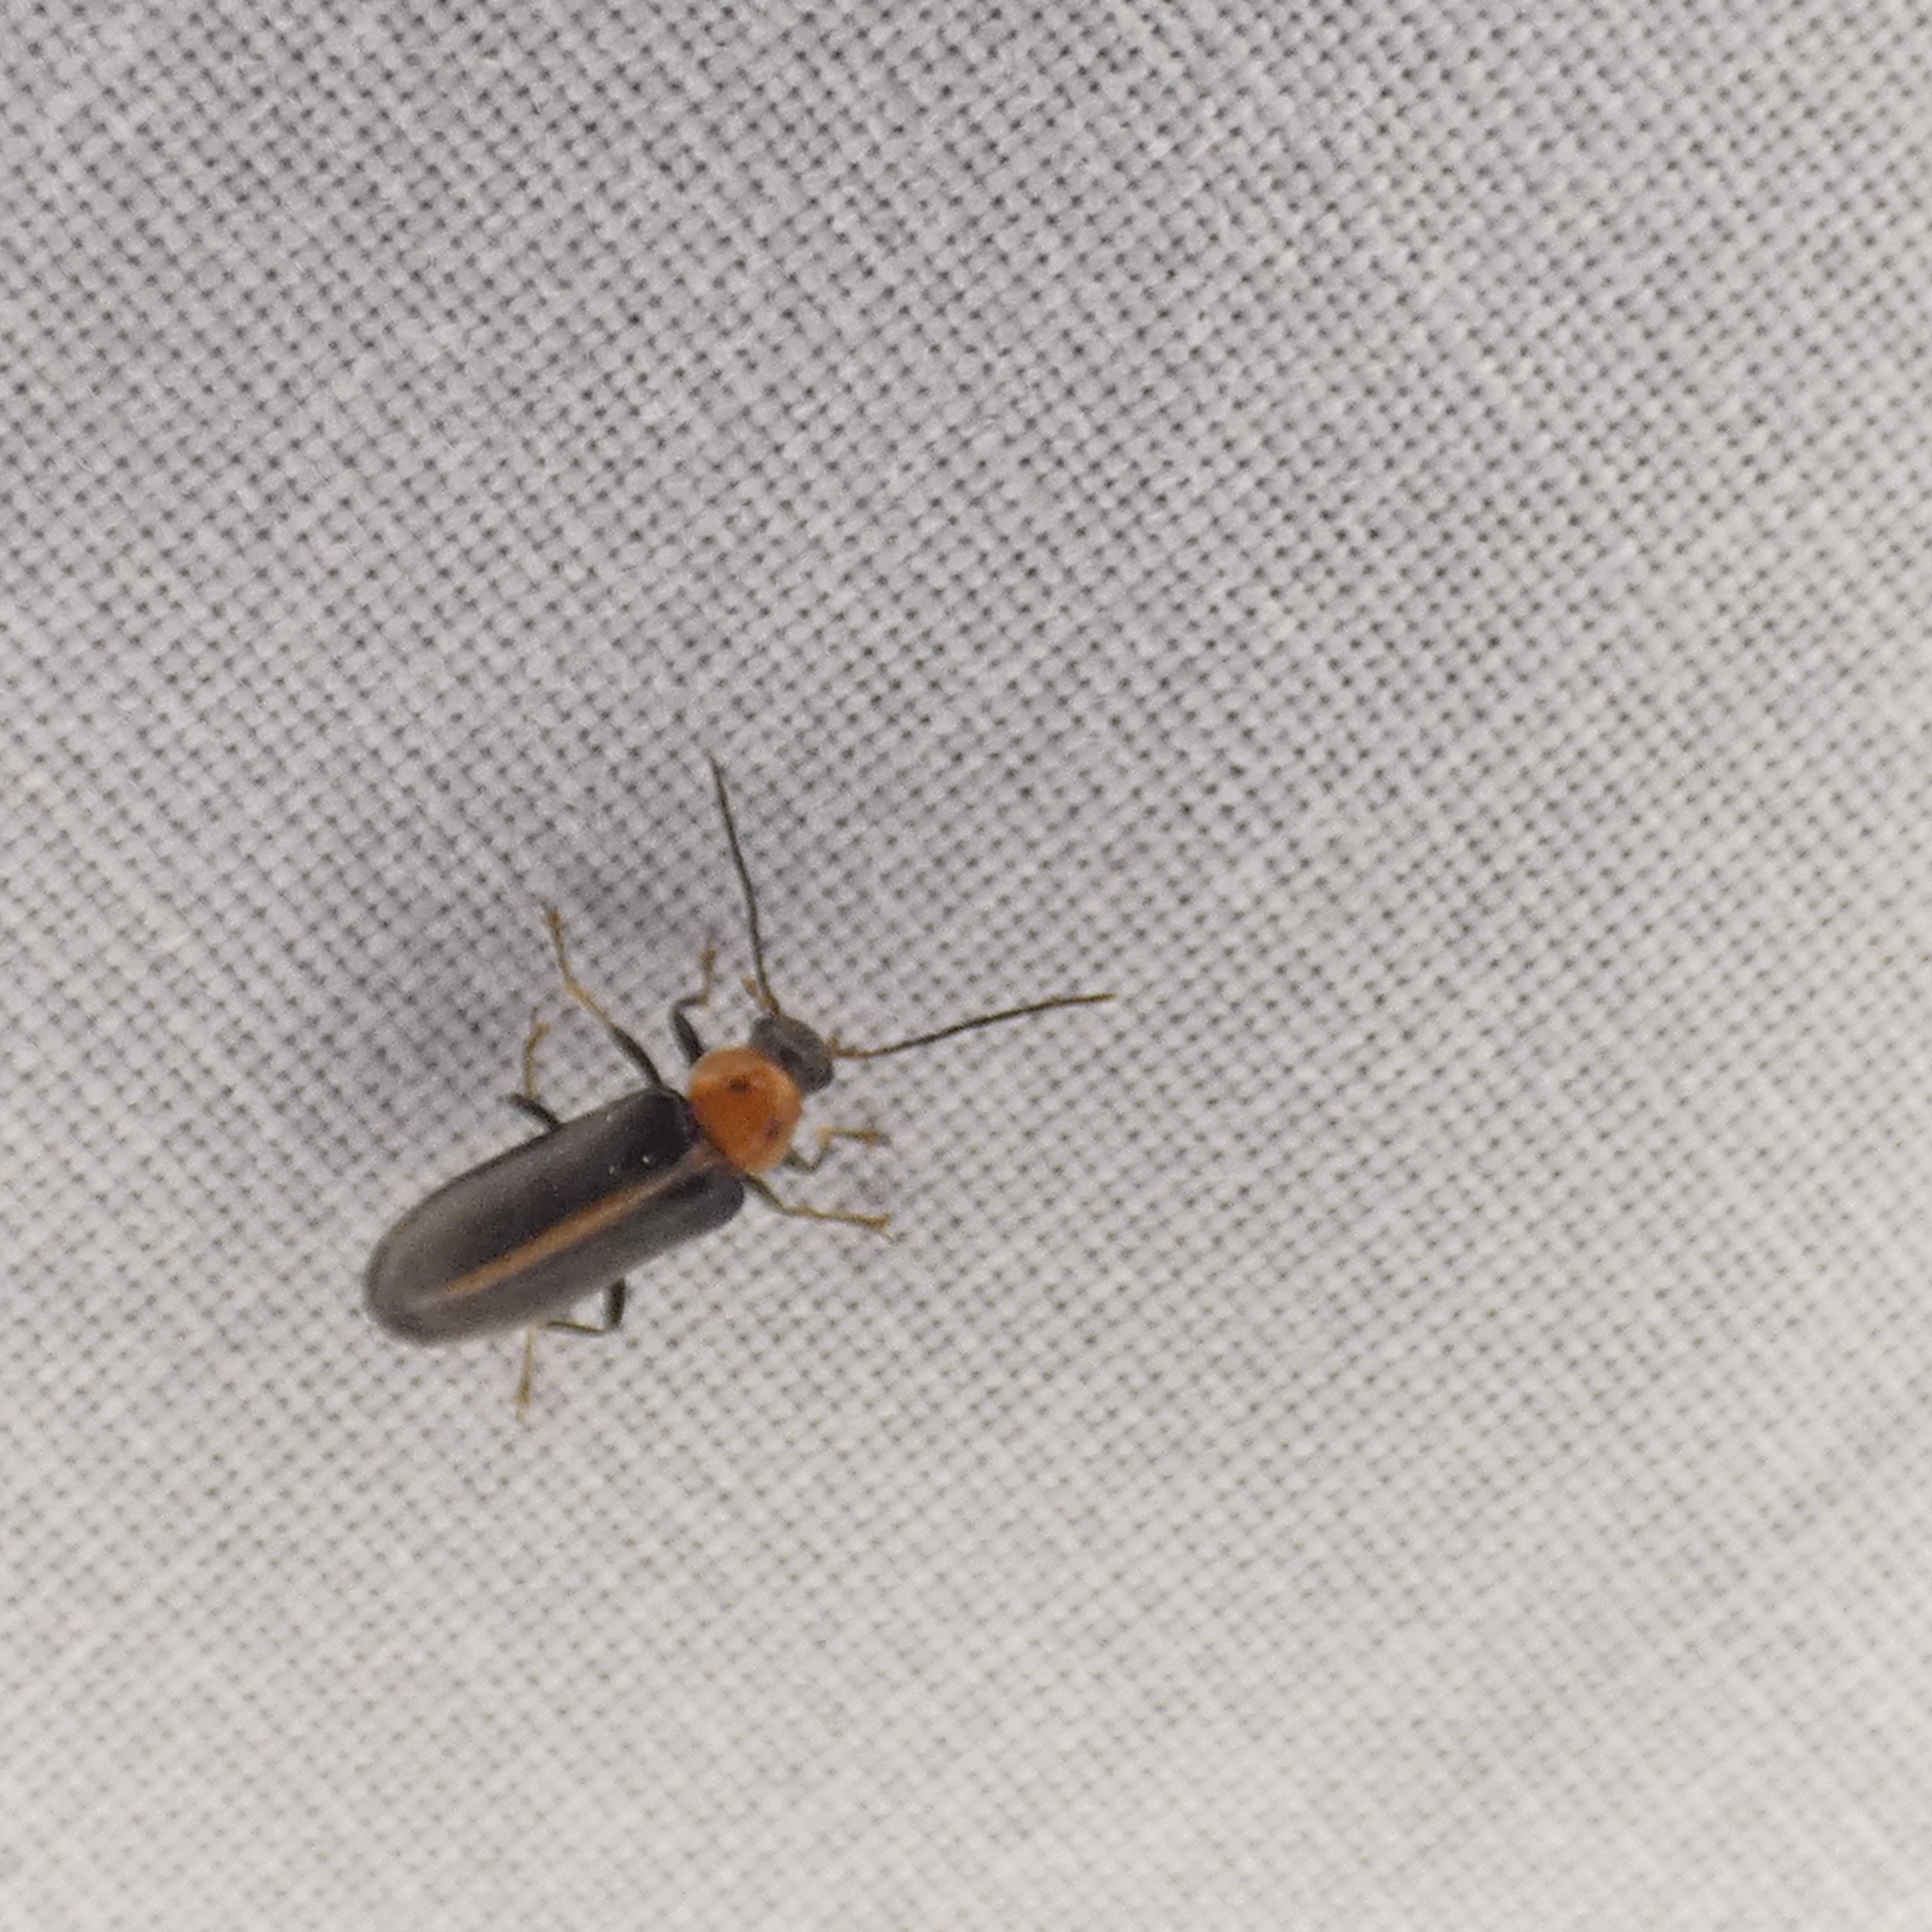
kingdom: Animalia
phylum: Arthropoda
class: Insecta
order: Coleoptera
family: Melandryidae
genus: Osphya
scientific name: Osphya varians
